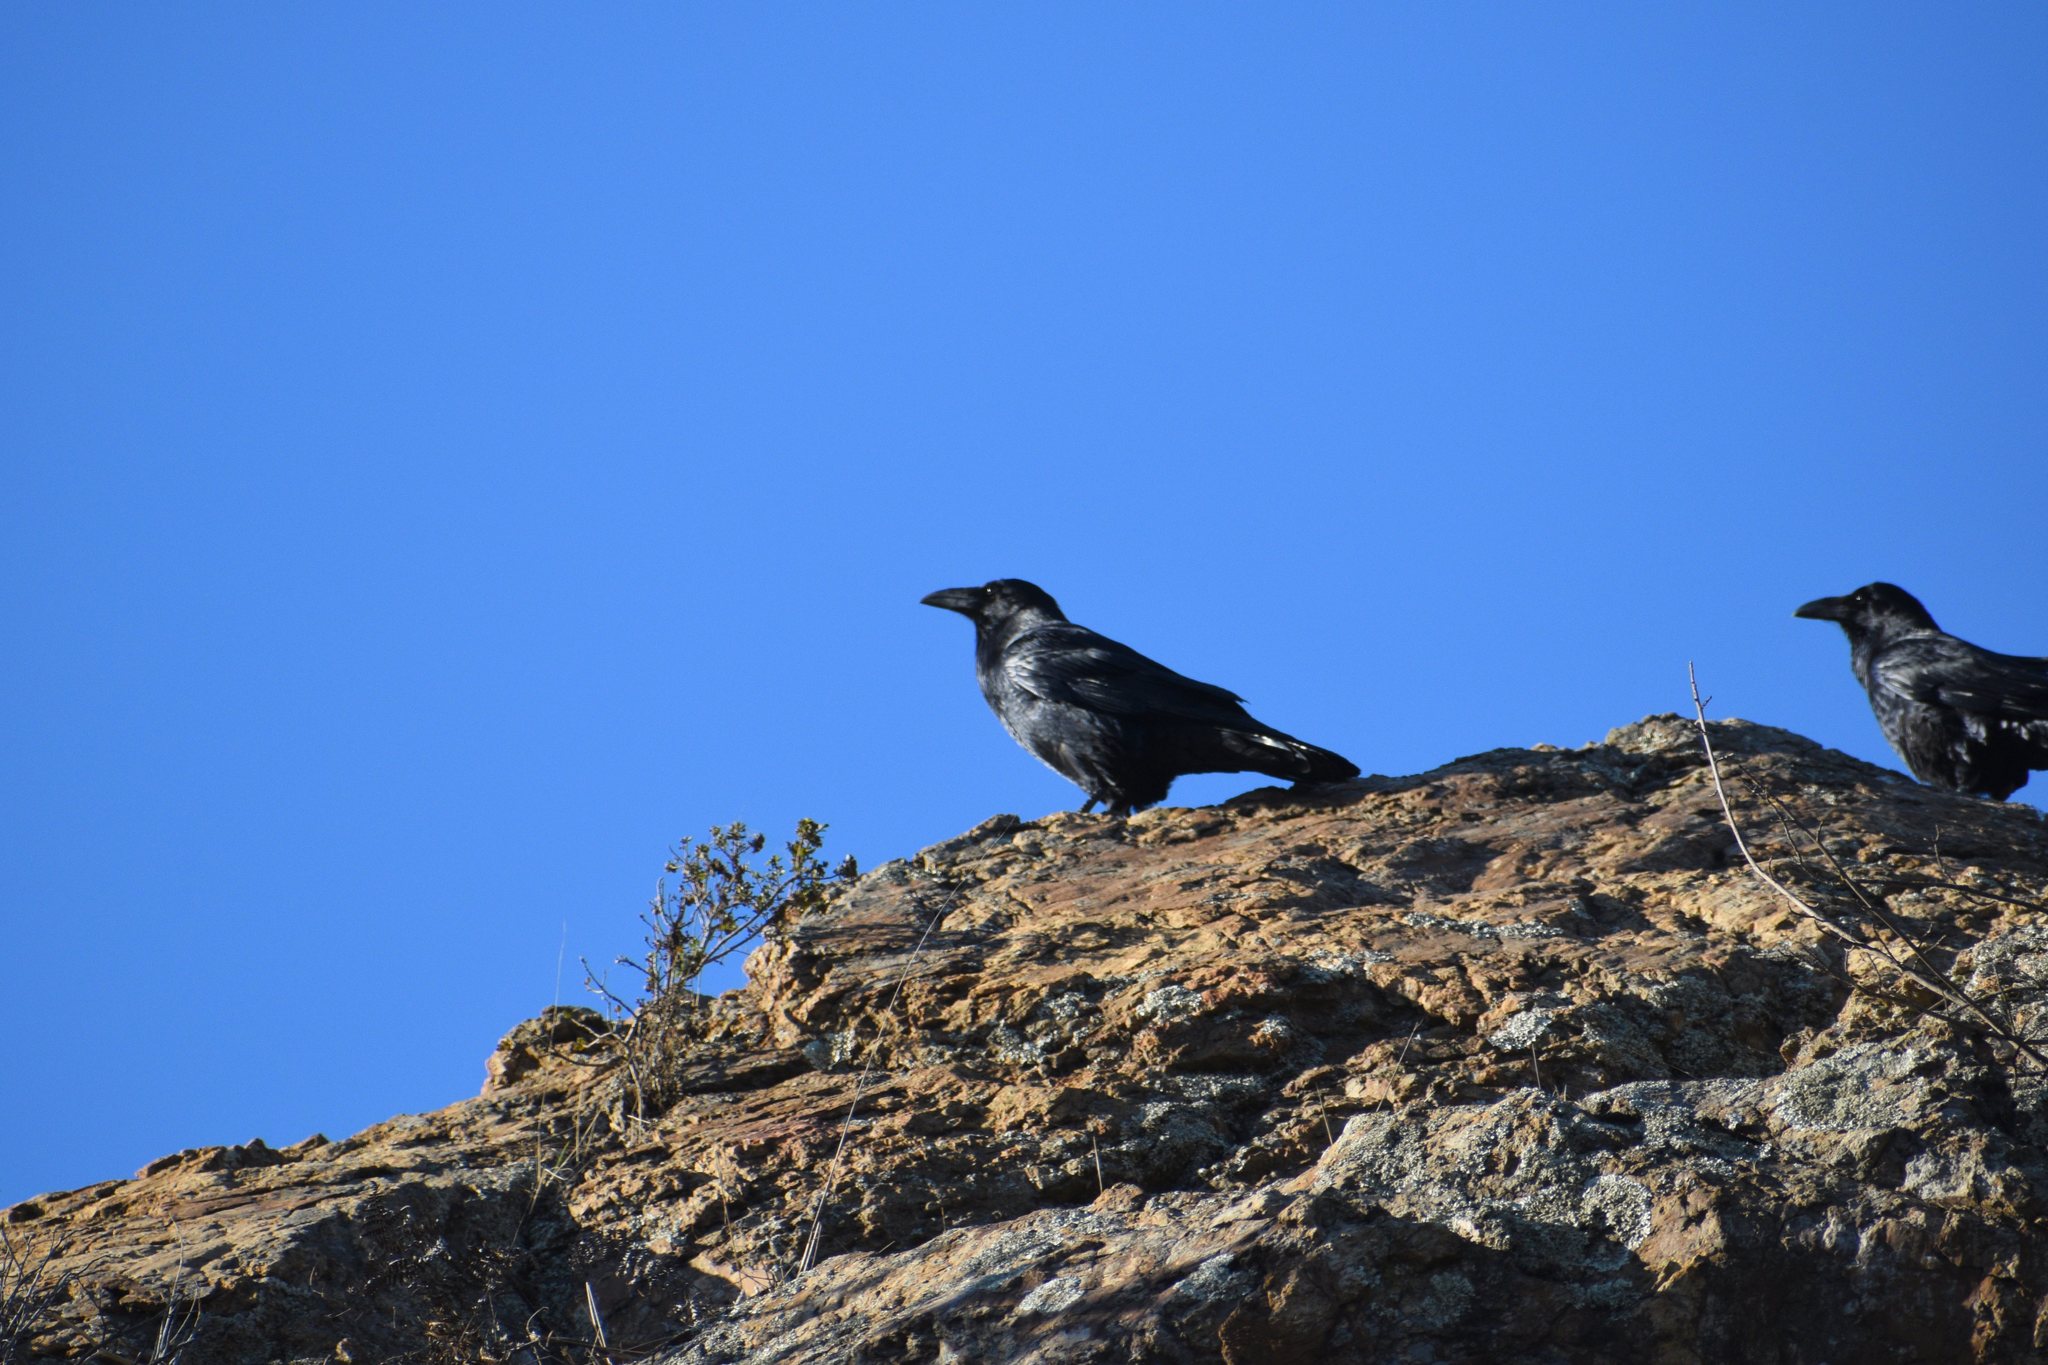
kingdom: Animalia
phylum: Chordata
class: Aves
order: Passeriformes
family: Corvidae
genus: Corvus
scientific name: Corvus corax
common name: Common raven
